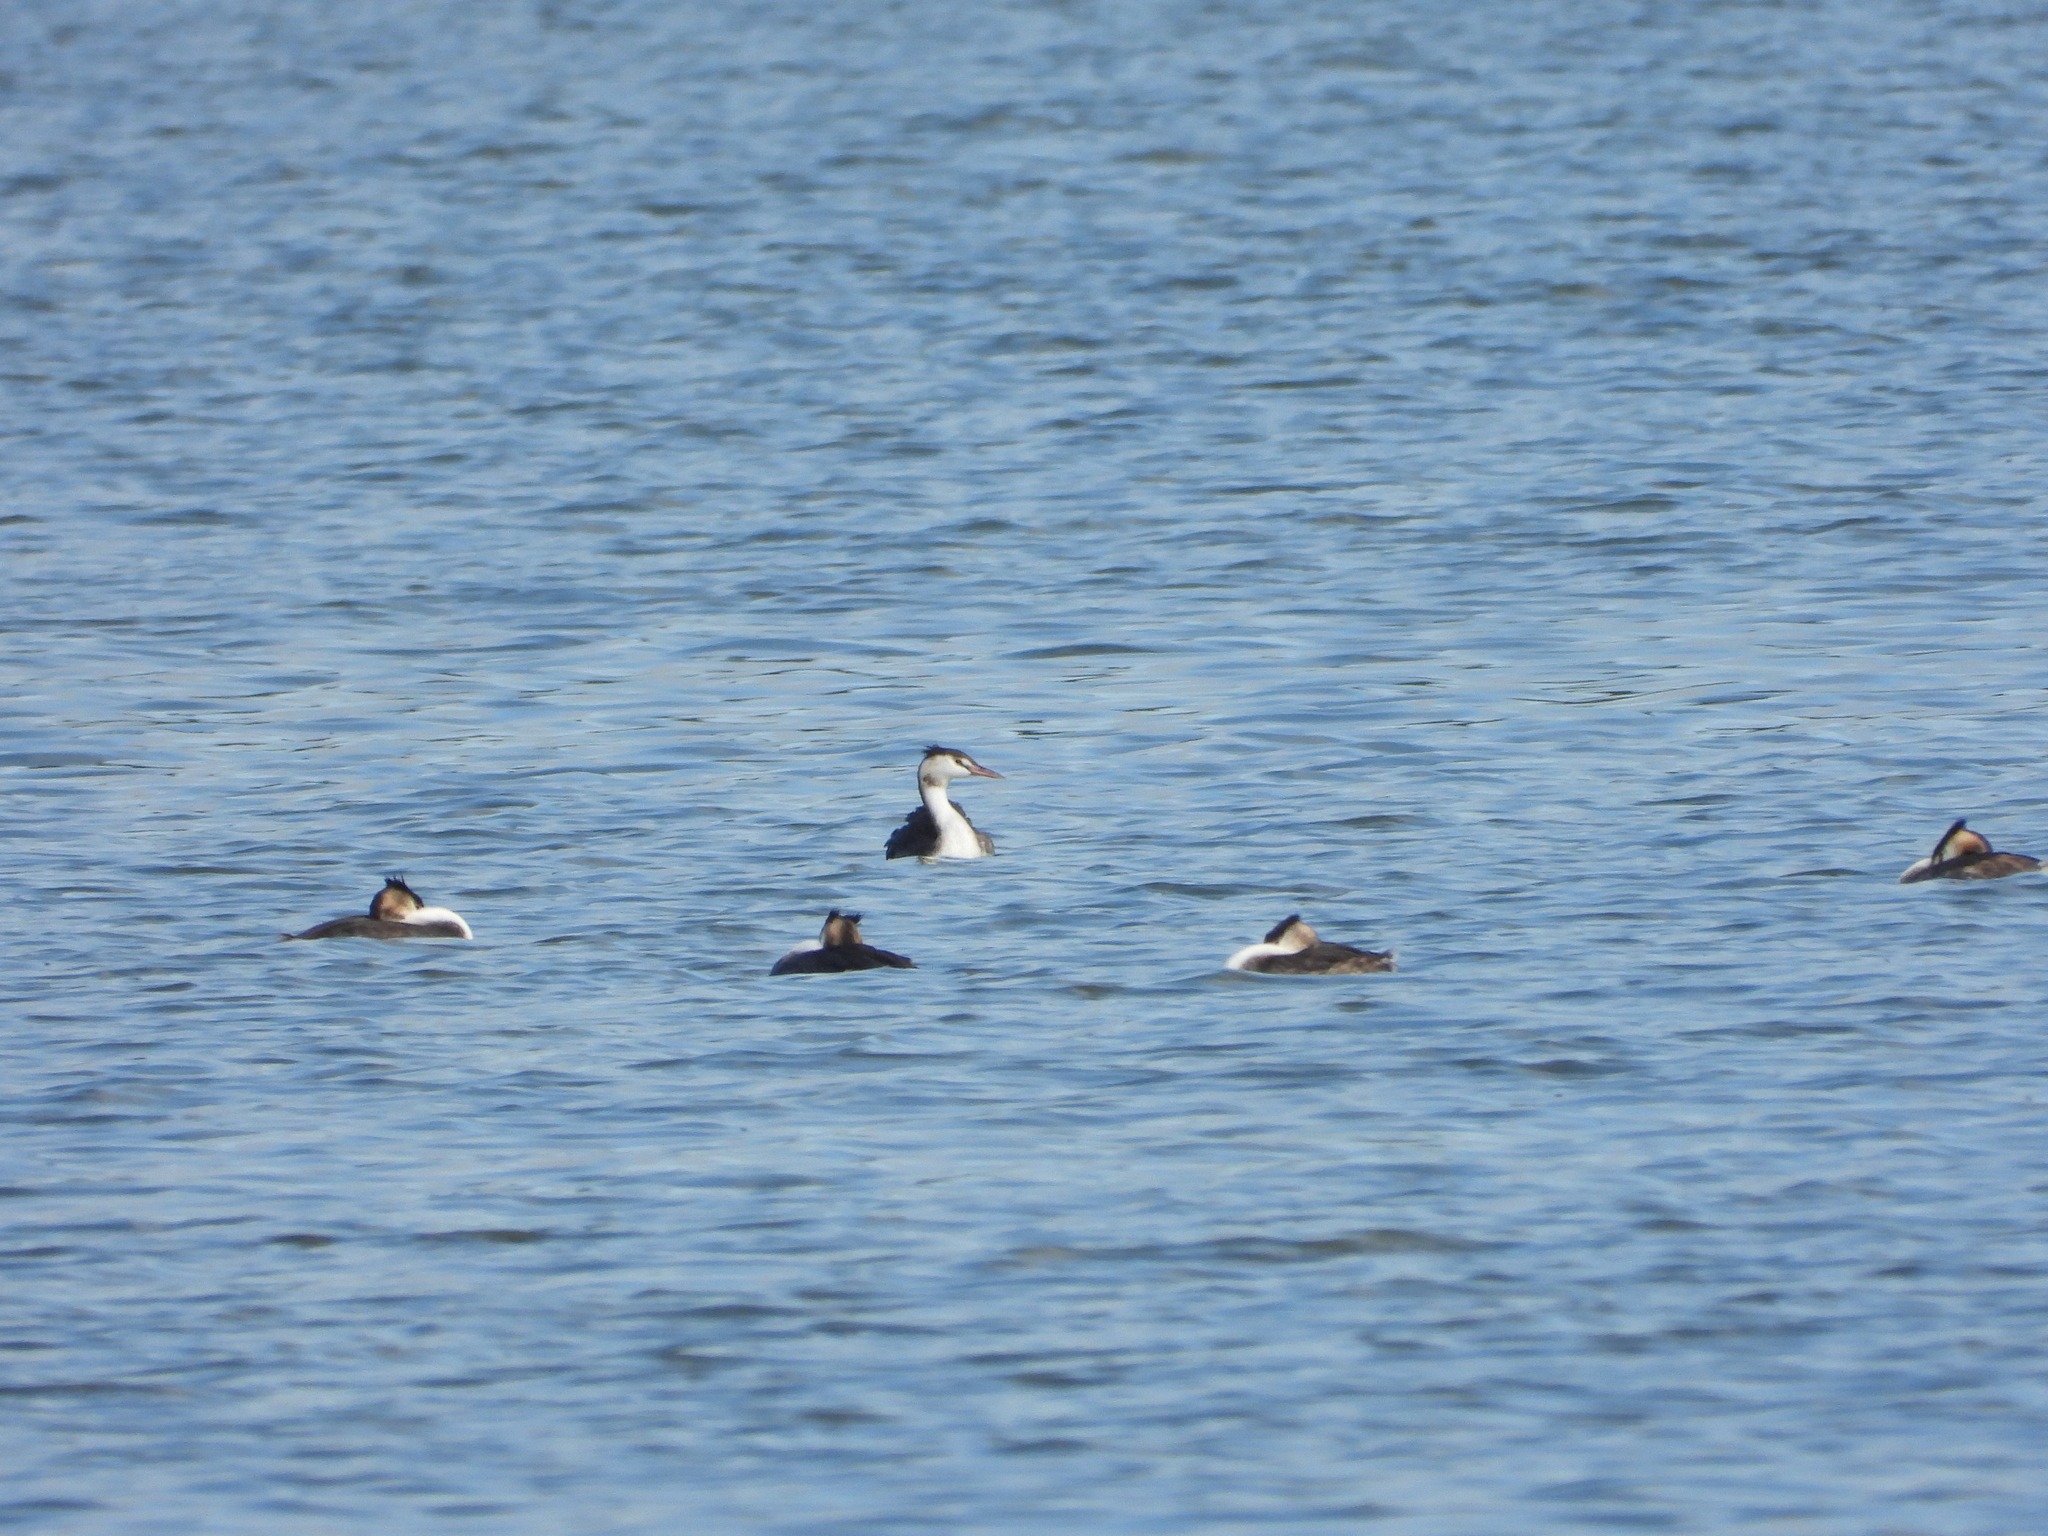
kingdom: Animalia
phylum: Chordata
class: Aves
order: Podicipediformes
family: Podicipedidae
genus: Podiceps
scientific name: Podiceps cristatus
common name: Great crested grebe
